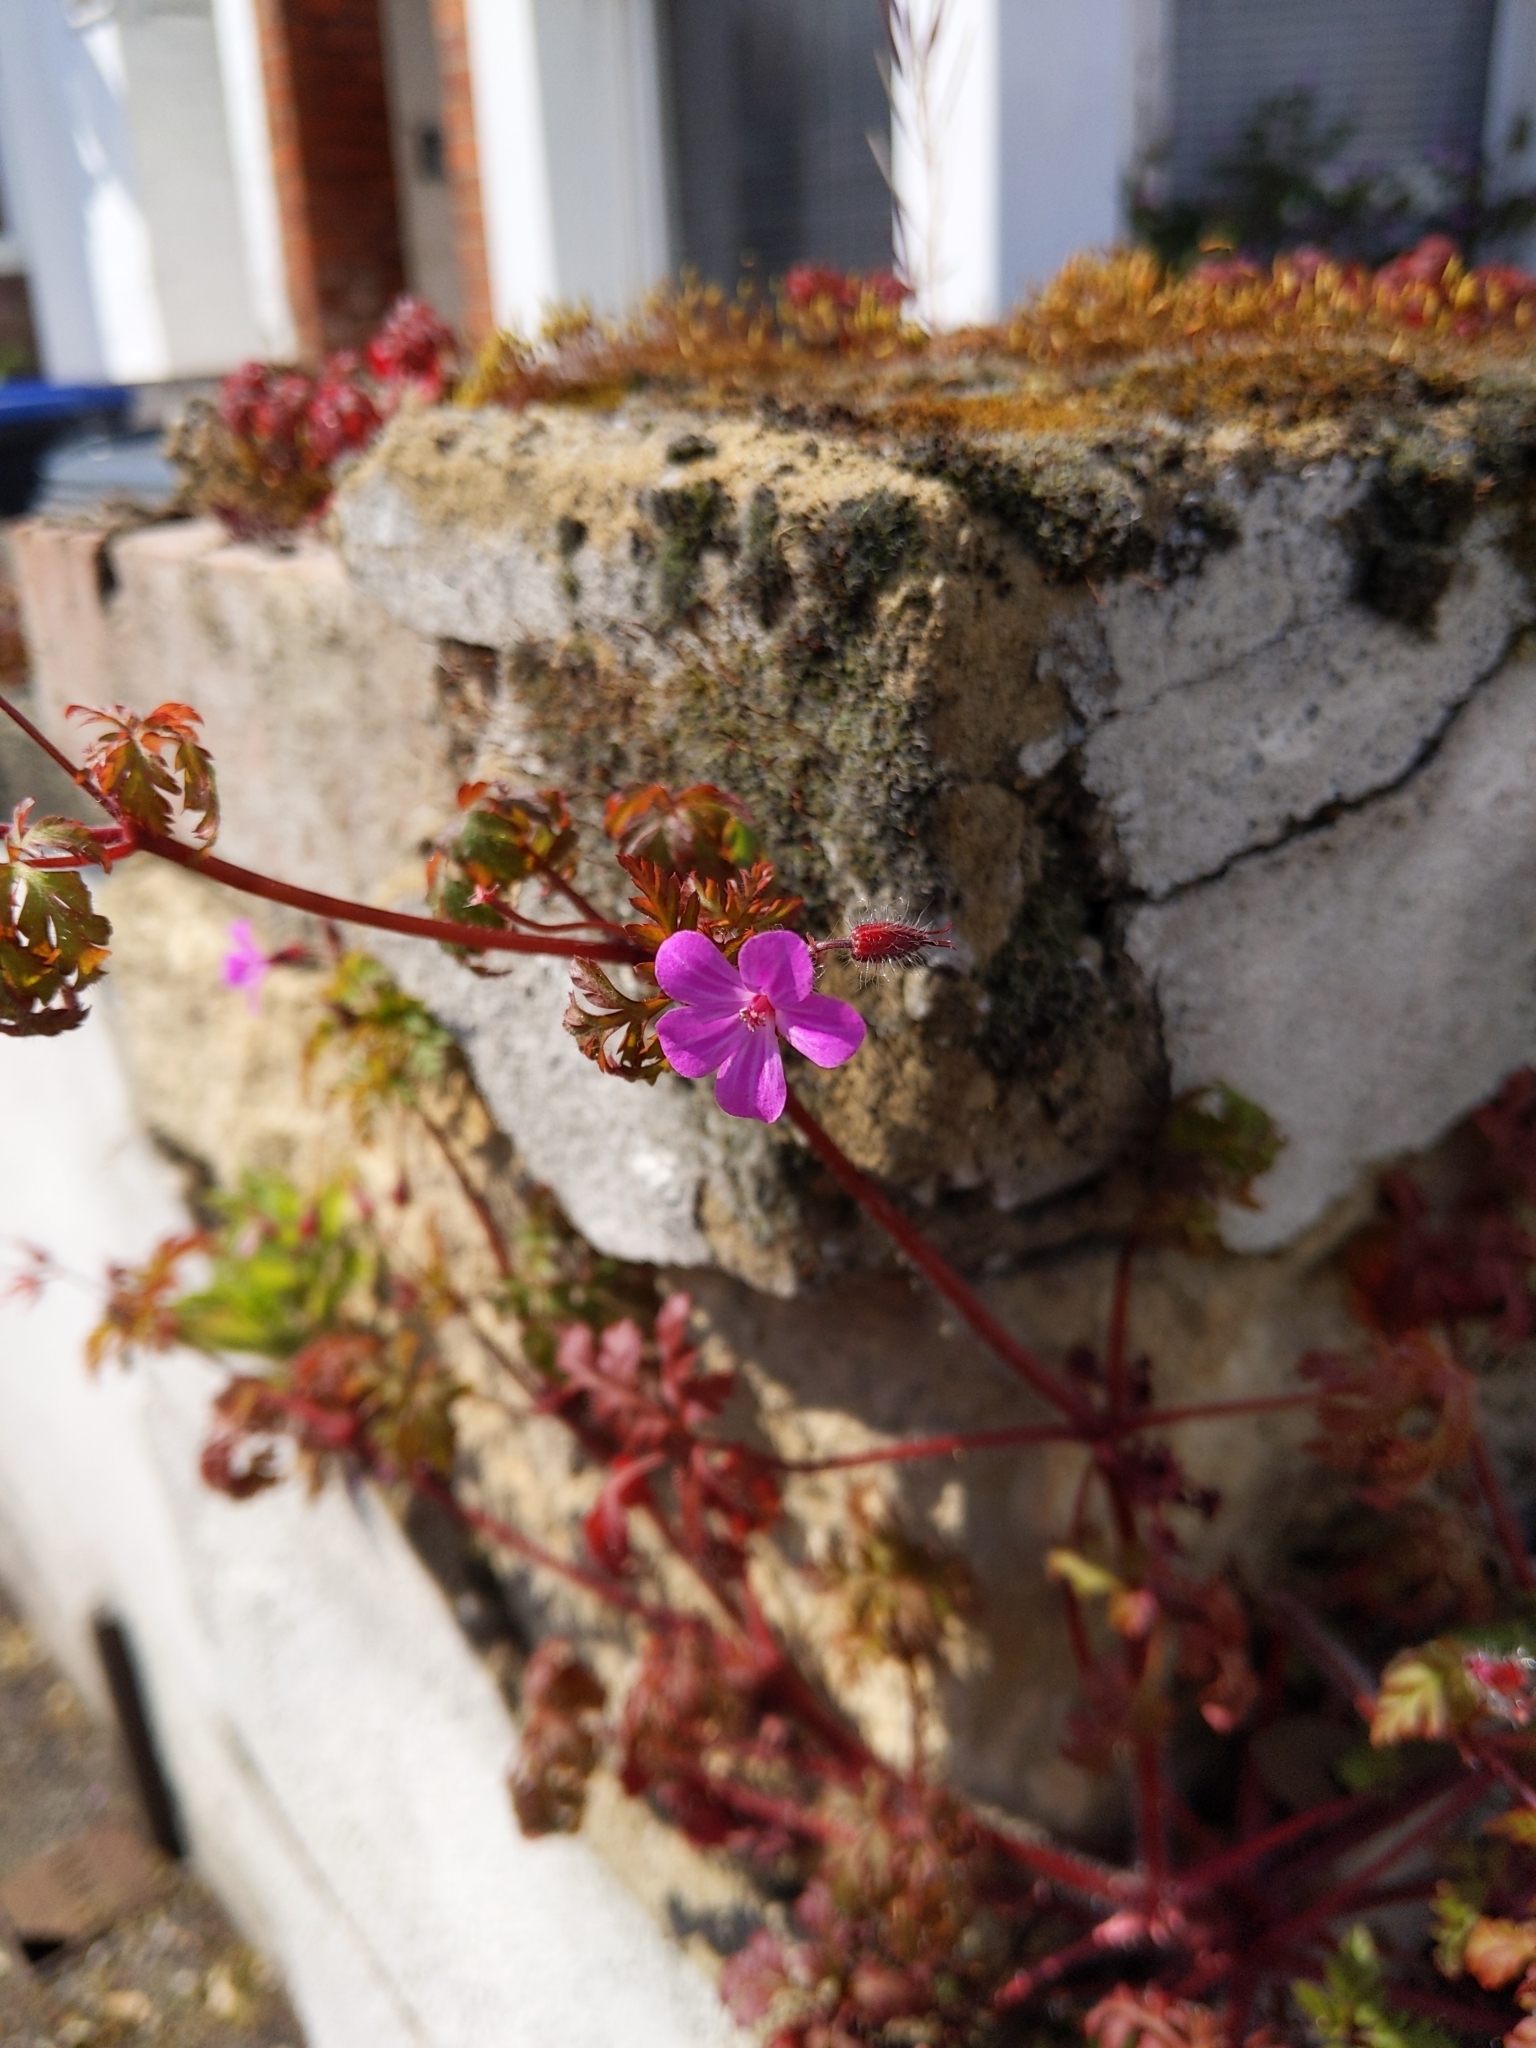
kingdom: Plantae
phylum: Tracheophyta
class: Magnoliopsida
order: Geraniales
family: Geraniaceae
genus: Geranium
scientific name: Geranium robertianum
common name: Herb-robert
